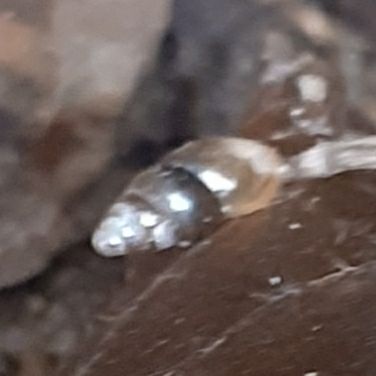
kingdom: Animalia
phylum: Mollusca
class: Gastropoda
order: Stylommatophora
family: Cochlicopidae
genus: Cochlicopa
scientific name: Cochlicopa lubrica
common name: Glossy pillar snail
